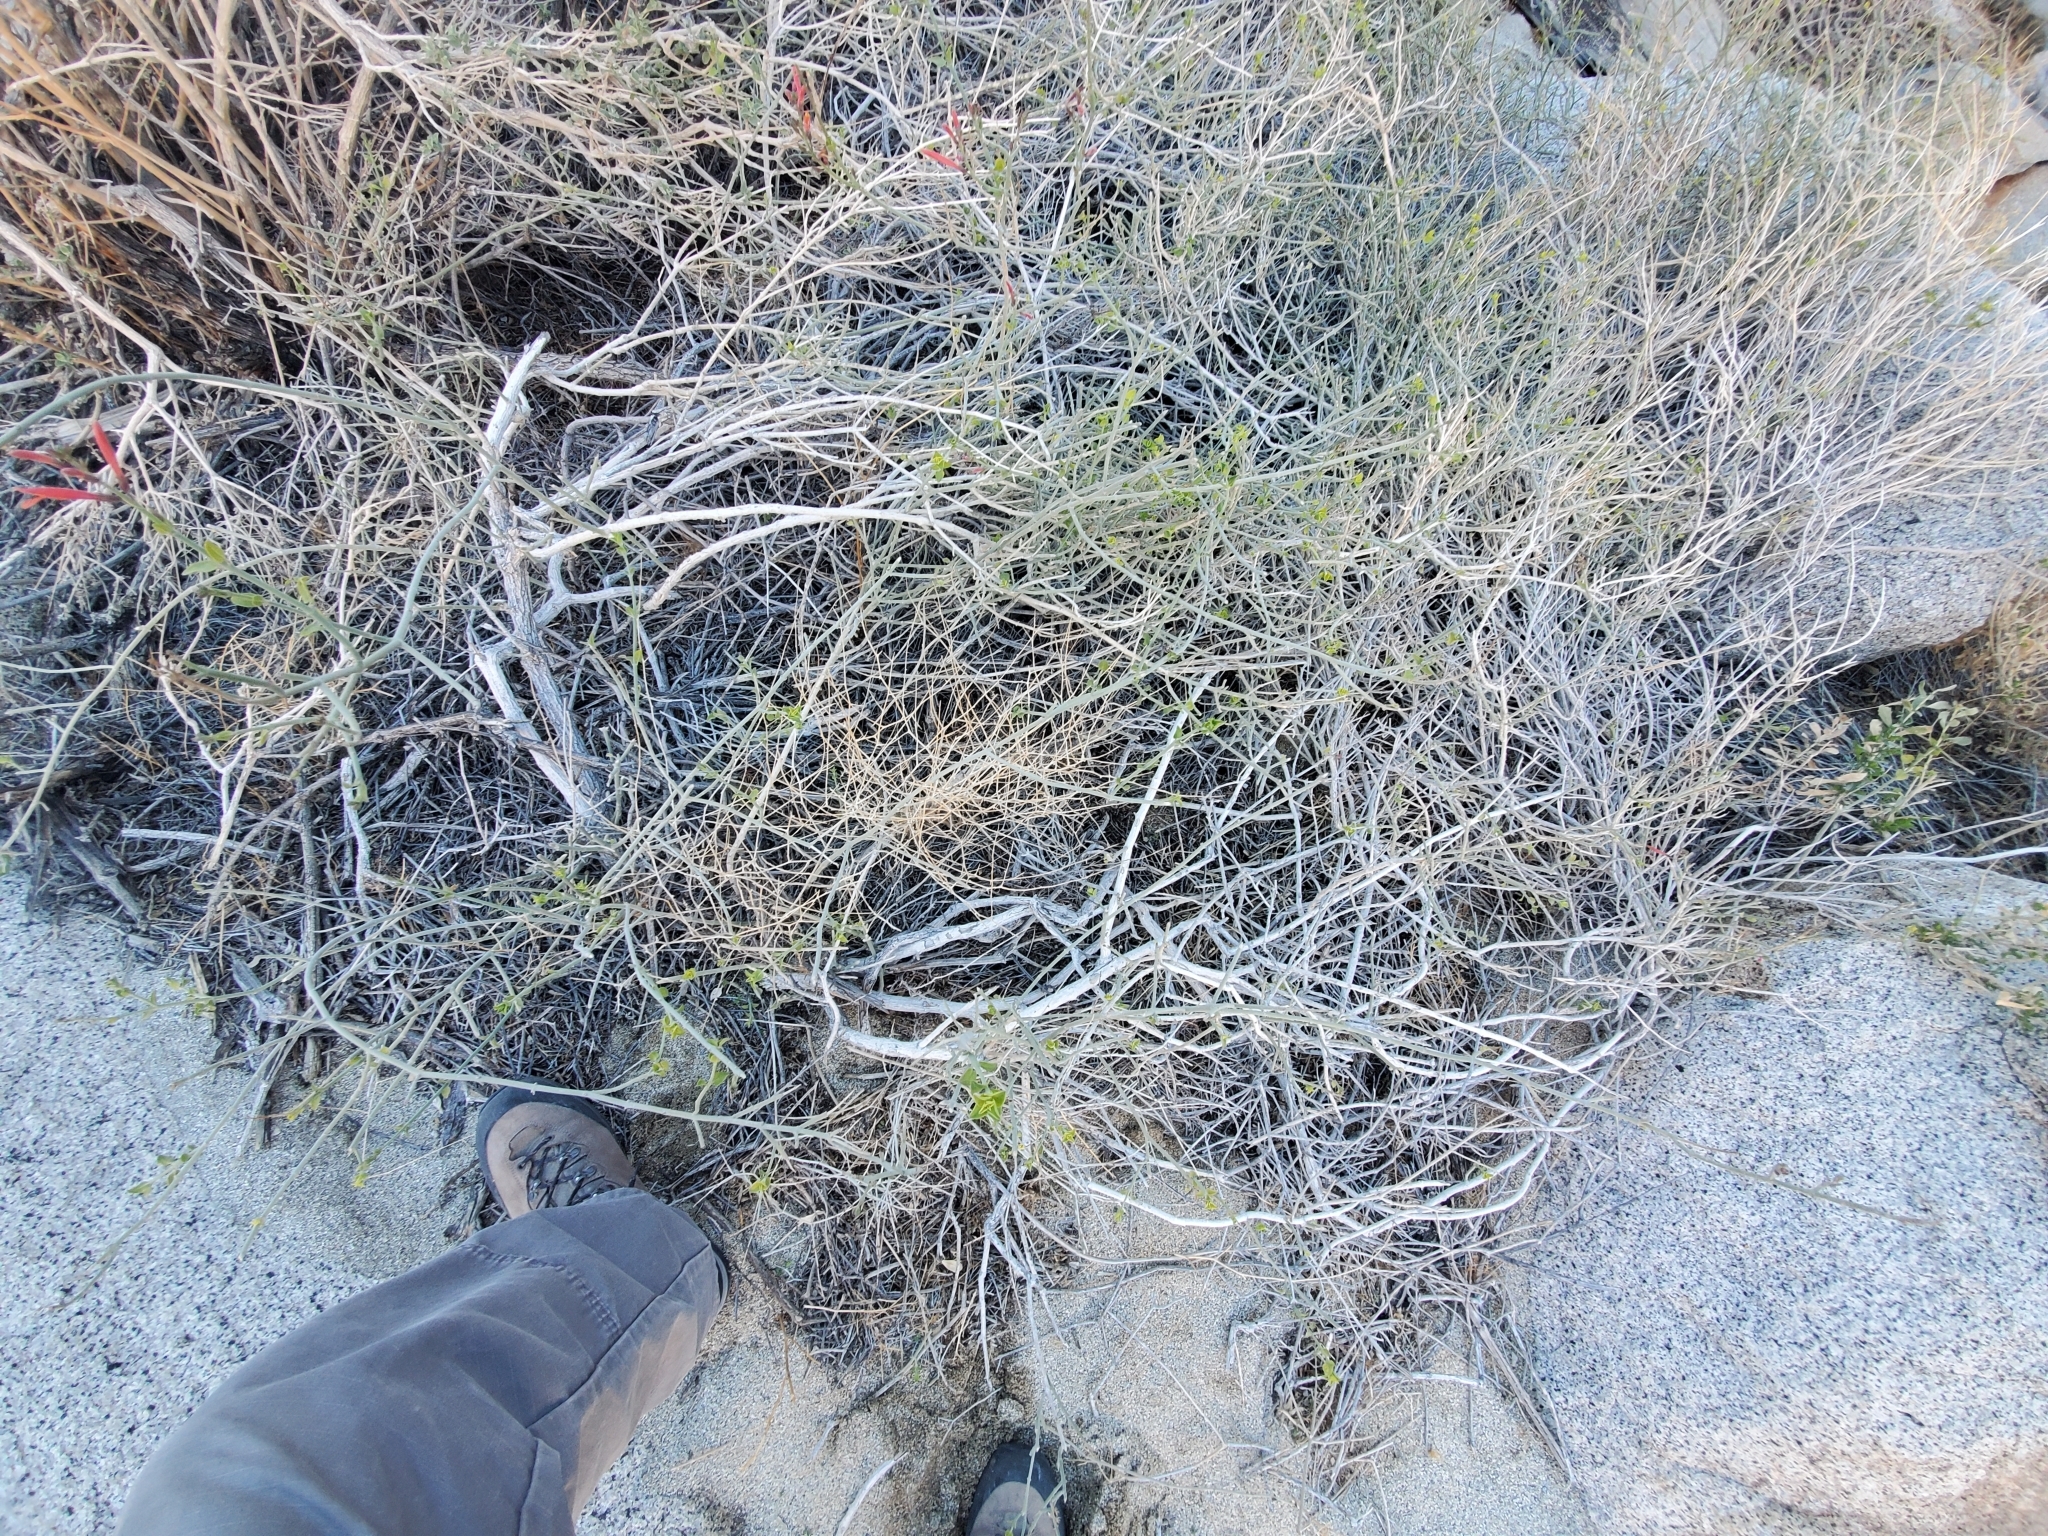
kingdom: Plantae
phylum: Tracheophyta
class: Magnoliopsida
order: Lamiales
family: Acanthaceae
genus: Justicia
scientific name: Justicia californica
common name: Chuparosa-honeysuckle
